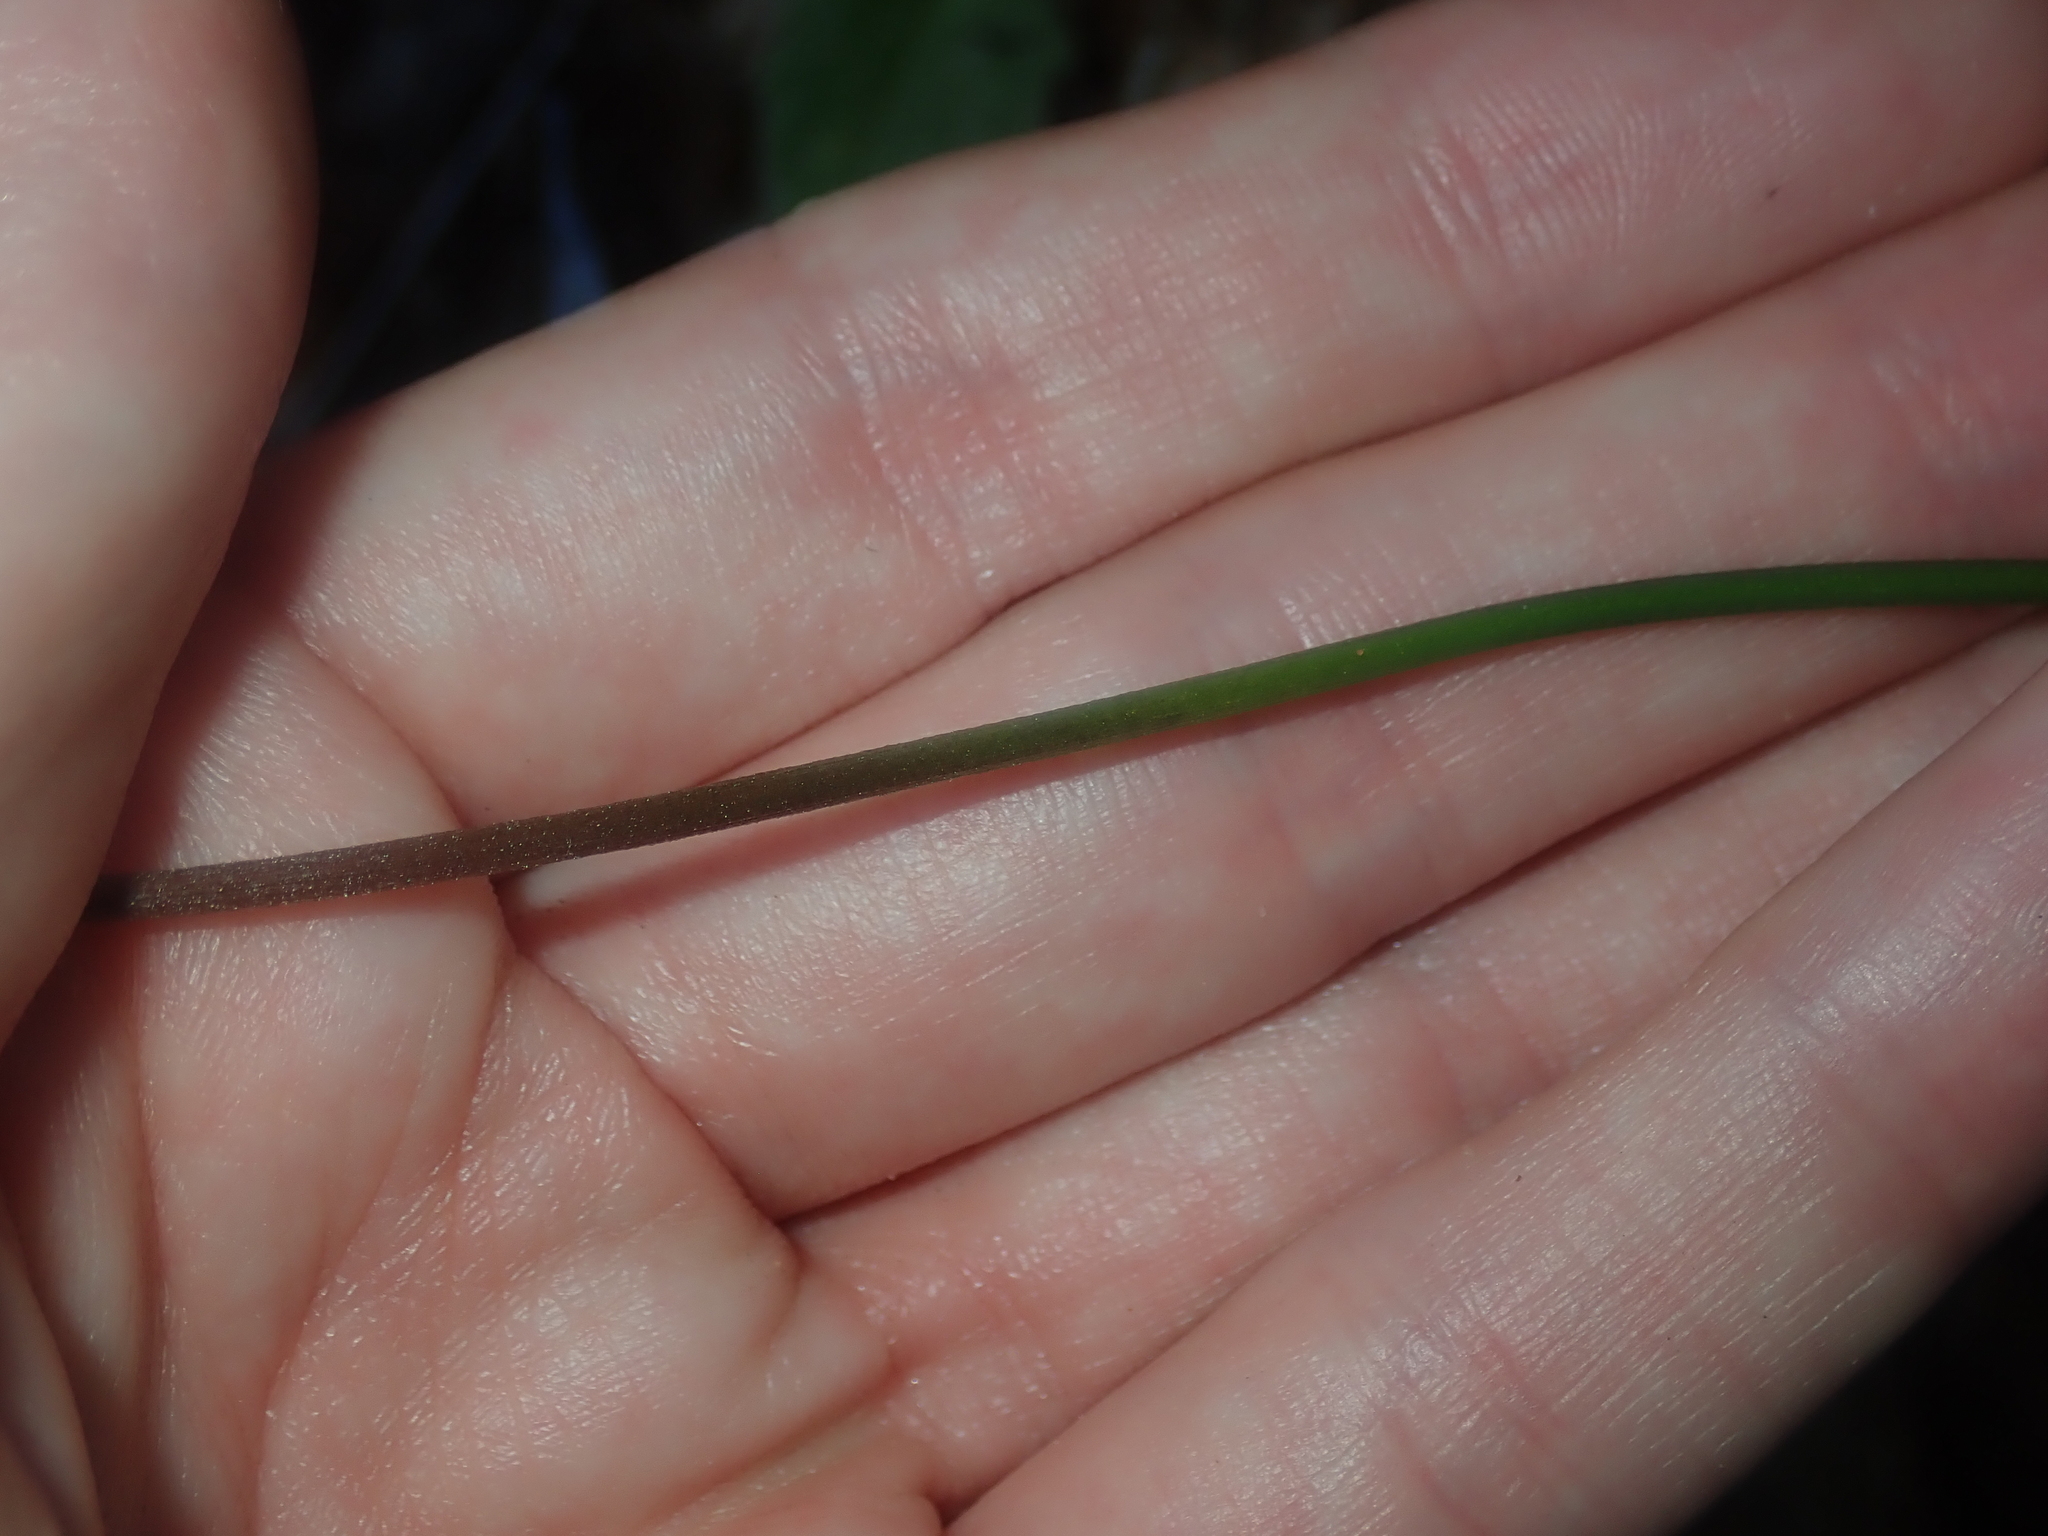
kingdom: Plantae
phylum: Tracheophyta
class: Liliopsida
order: Asparagales
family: Asparagaceae
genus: Sowerbaea
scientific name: Sowerbaea laxiflora
